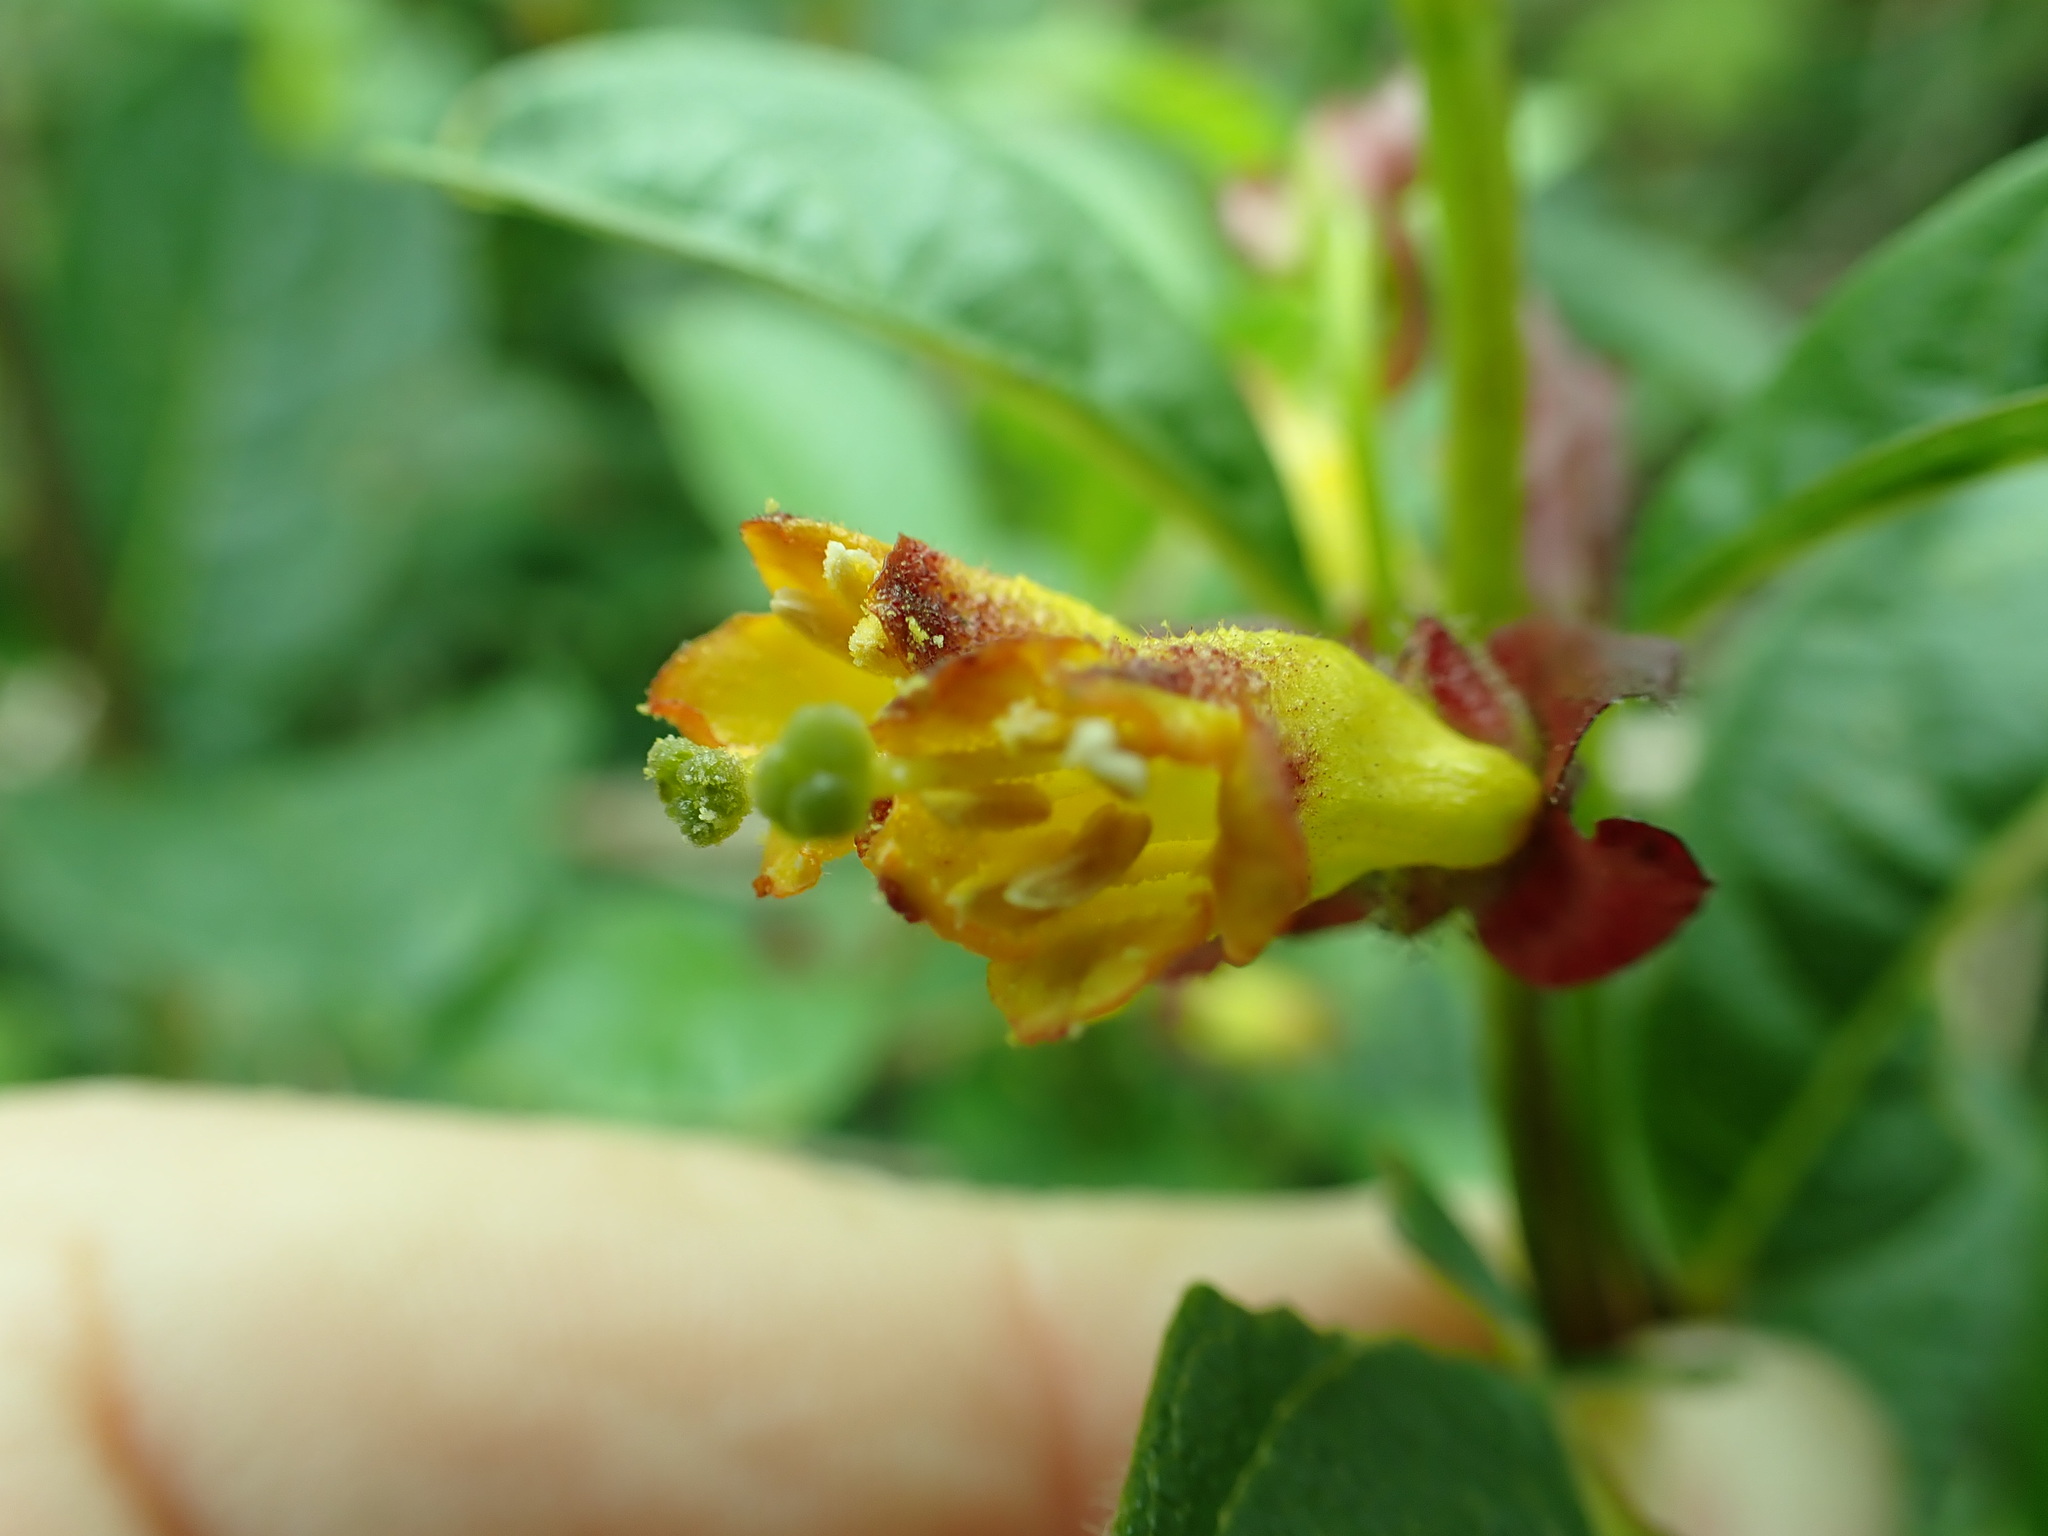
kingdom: Plantae
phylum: Tracheophyta
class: Magnoliopsida
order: Dipsacales
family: Caprifoliaceae
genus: Lonicera
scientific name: Lonicera involucrata
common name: Californian honeysuckle
